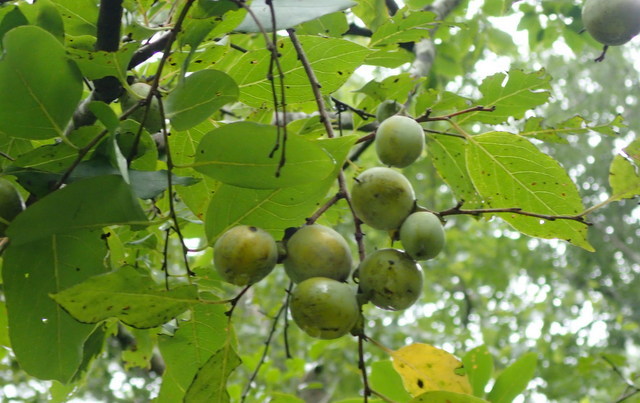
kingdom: Plantae
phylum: Tracheophyta
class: Magnoliopsida
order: Ericales
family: Ebenaceae
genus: Diospyros
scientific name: Diospyros virginiana
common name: Persimmon
